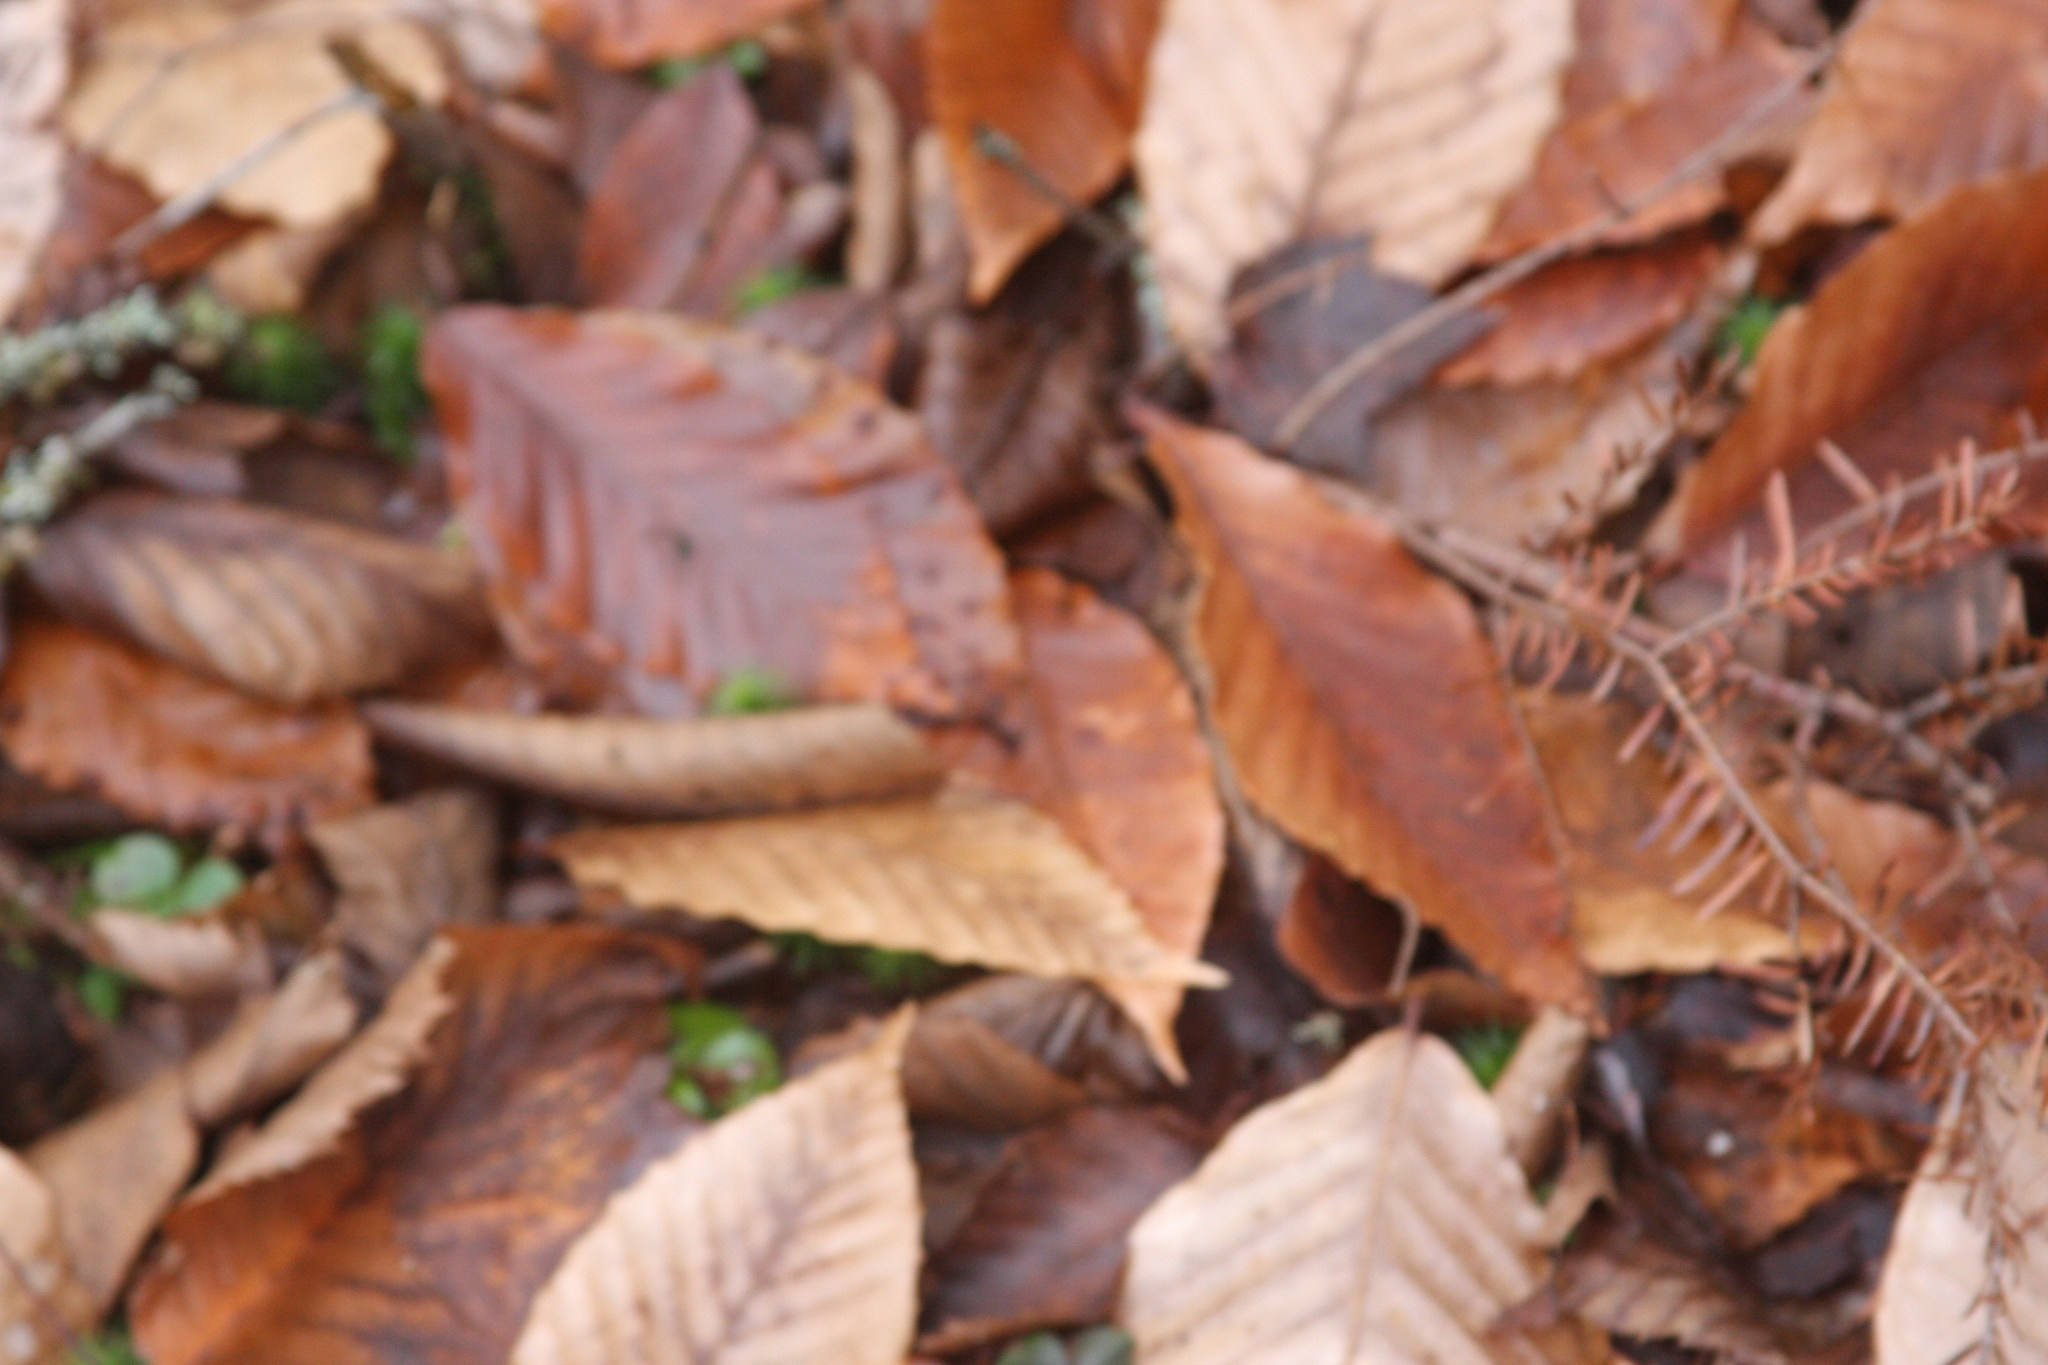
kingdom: Plantae
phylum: Tracheophyta
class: Magnoliopsida
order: Fagales
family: Fagaceae
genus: Fagus
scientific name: Fagus grandifolia
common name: American beech
